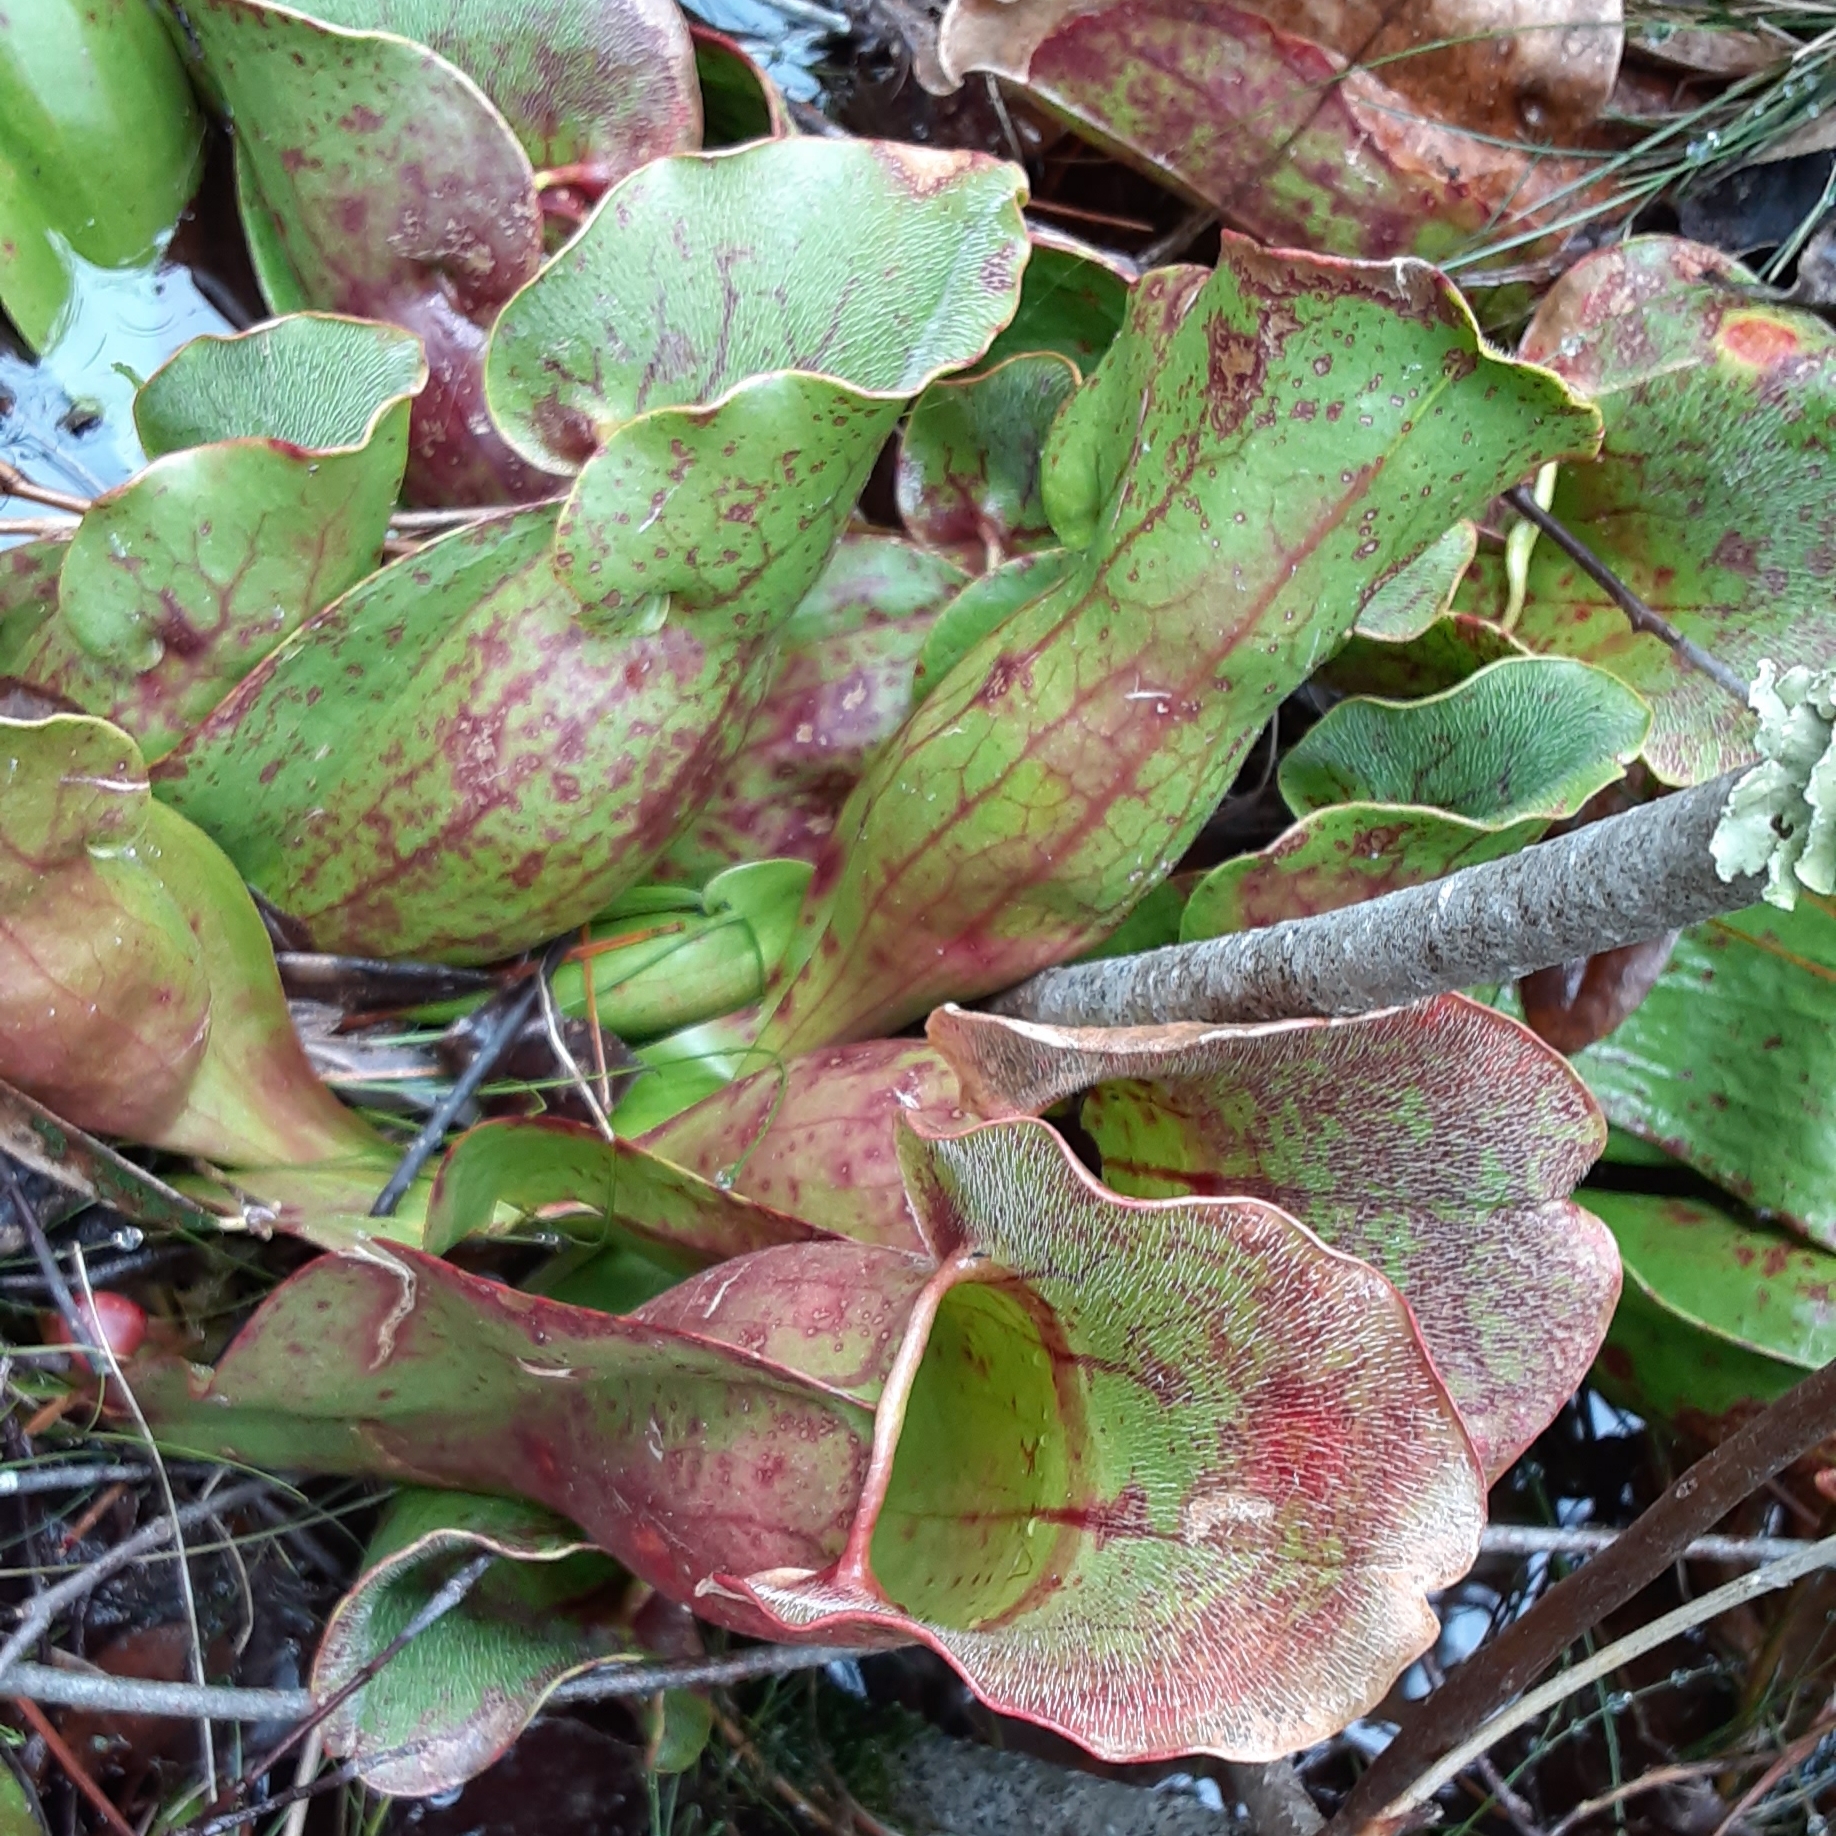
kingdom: Plantae
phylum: Tracheophyta
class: Magnoliopsida
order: Ericales
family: Sarraceniaceae
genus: Sarracenia
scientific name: Sarracenia purpurea
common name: Pitcherplant
